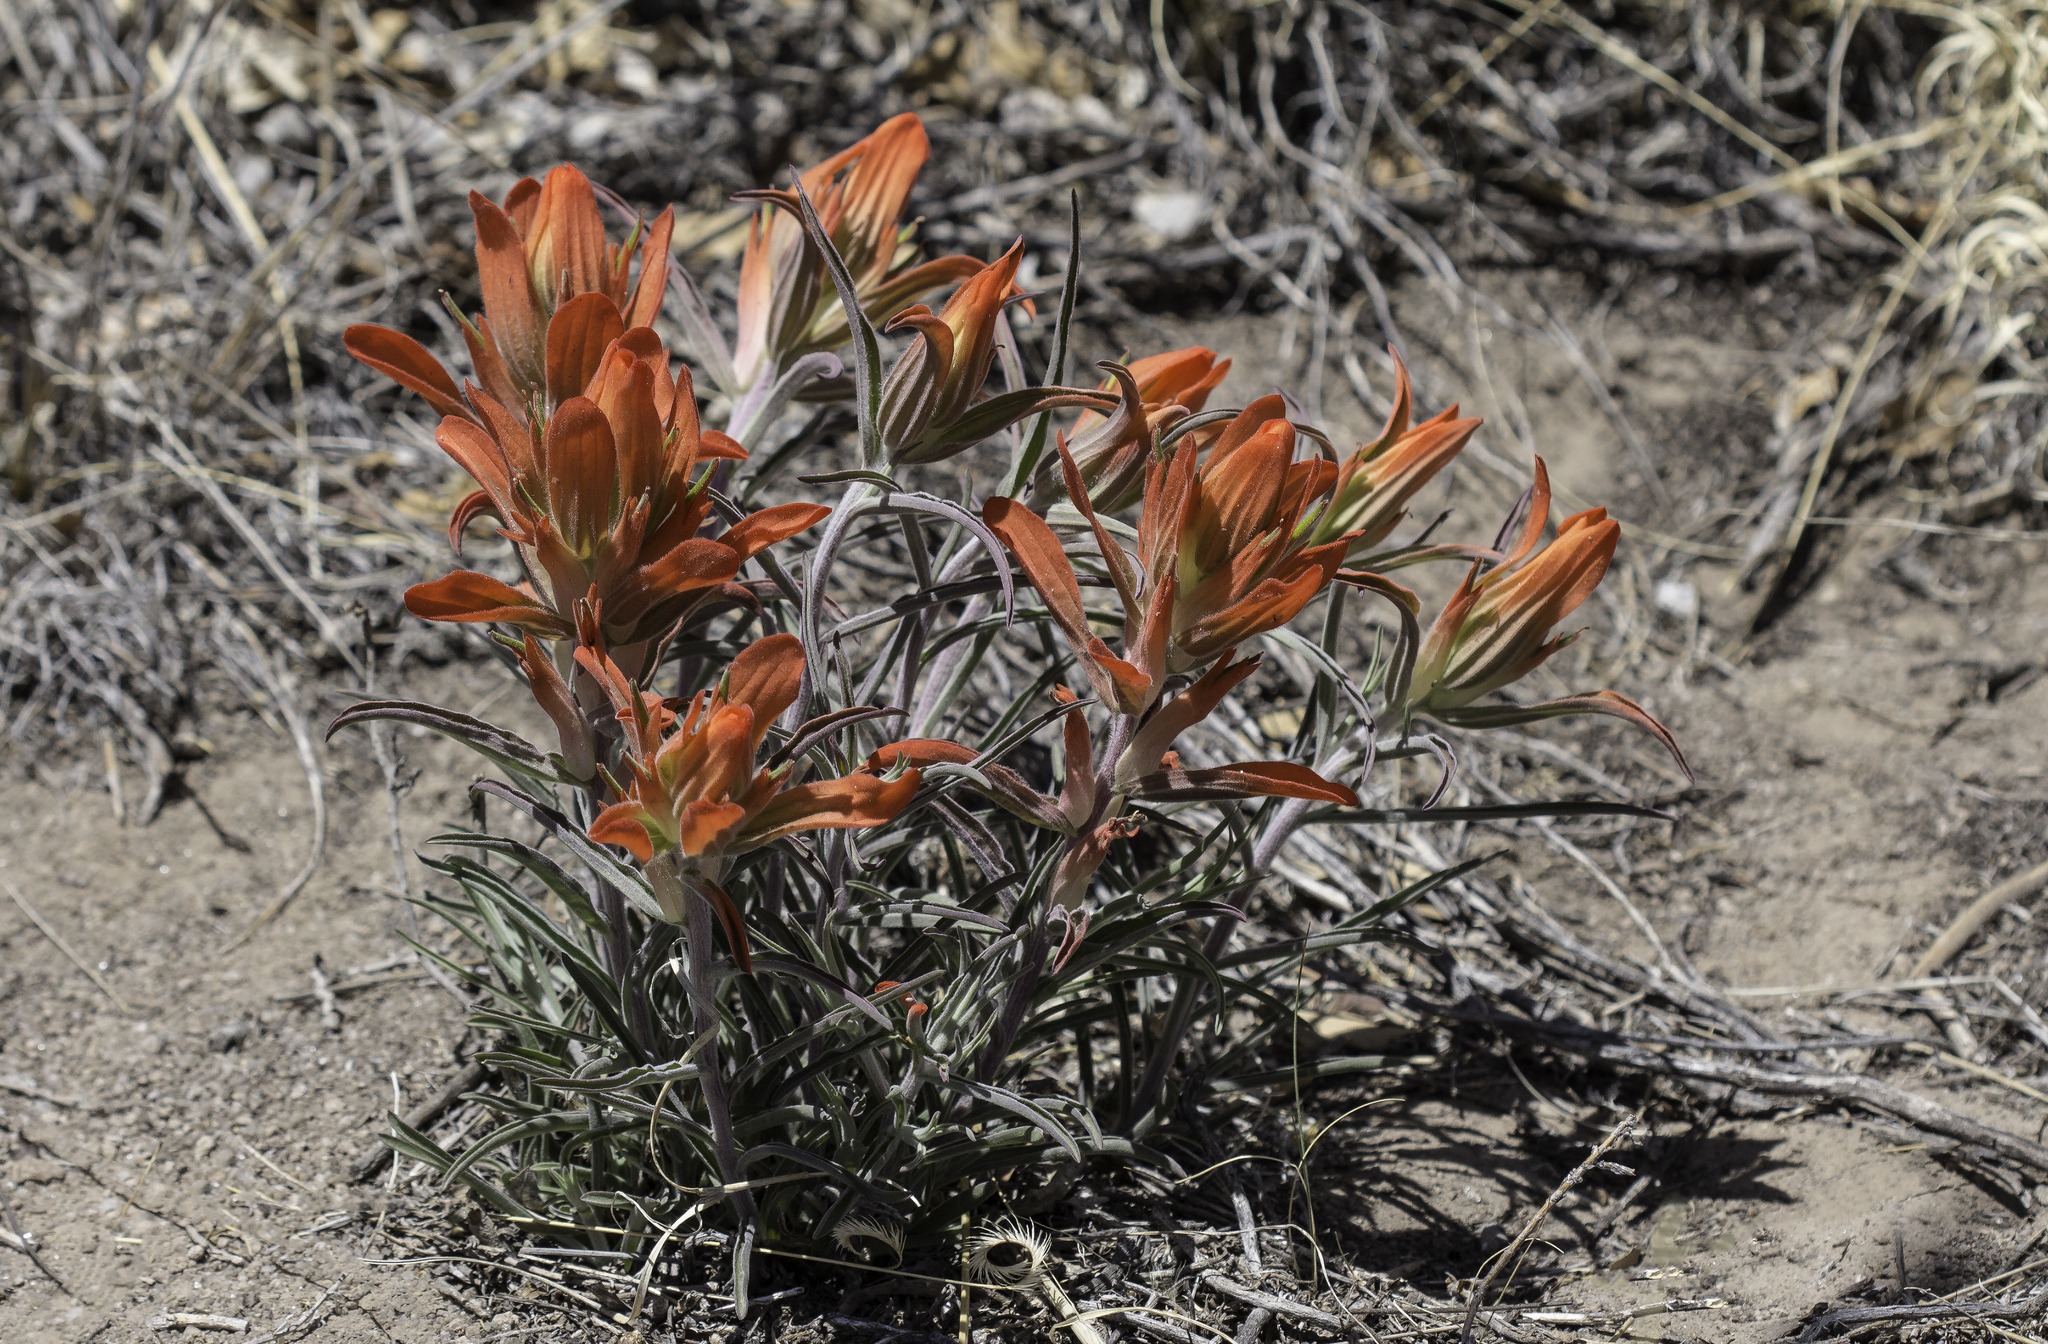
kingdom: Plantae
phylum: Tracheophyta
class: Magnoliopsida
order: Lamiales
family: Orobanchaceae
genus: Castilleja
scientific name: Castilleja integra
